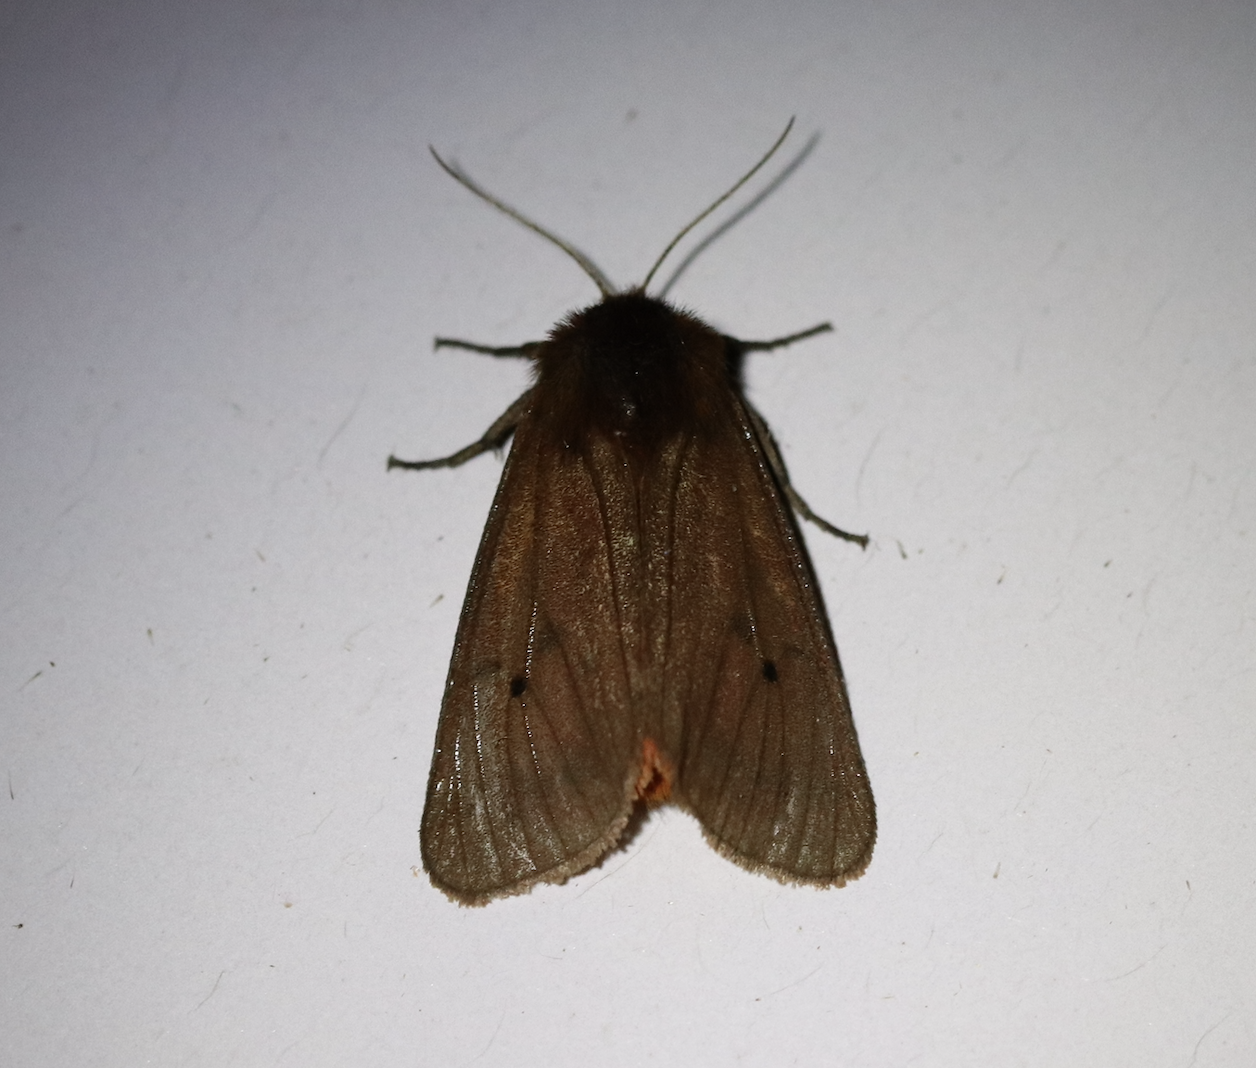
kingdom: Animalia
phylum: Arthropoda
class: Insecta
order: Lepidoptera
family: Erebidae
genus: Phragmatobia
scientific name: Phragmatobia fuliginosa
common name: Ruby tiger
